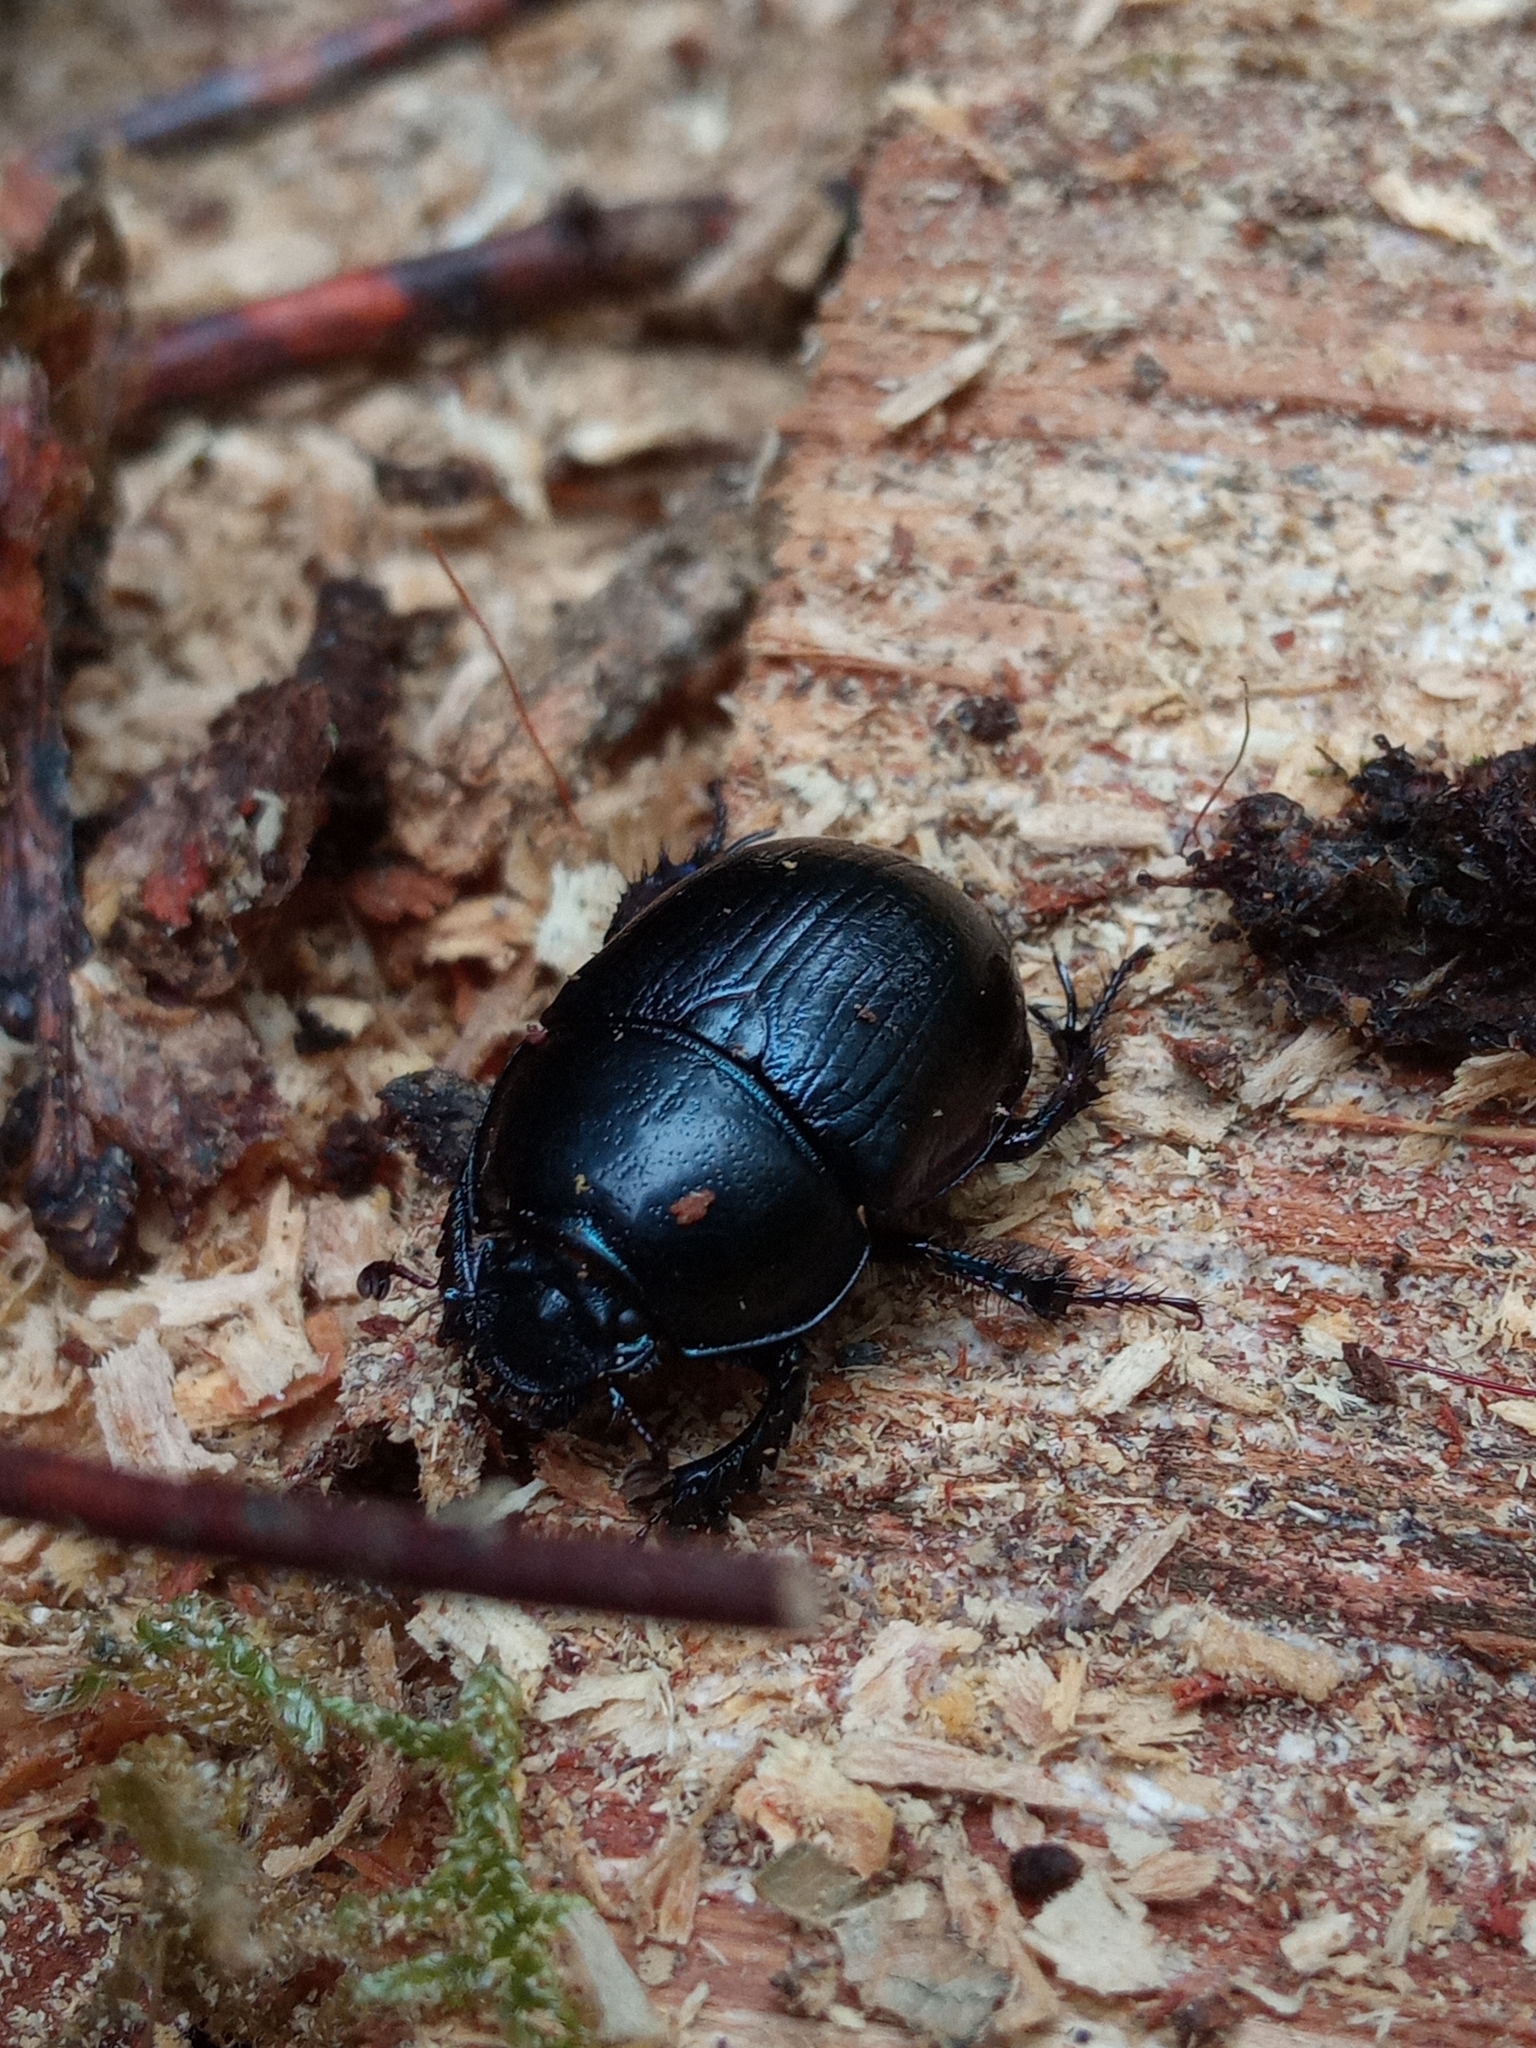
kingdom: Animalia
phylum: Arthropoda
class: Insecta
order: Coleoptera
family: Geotrupidae
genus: Anoplotrupes
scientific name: Anoplotrupes stercorosus
